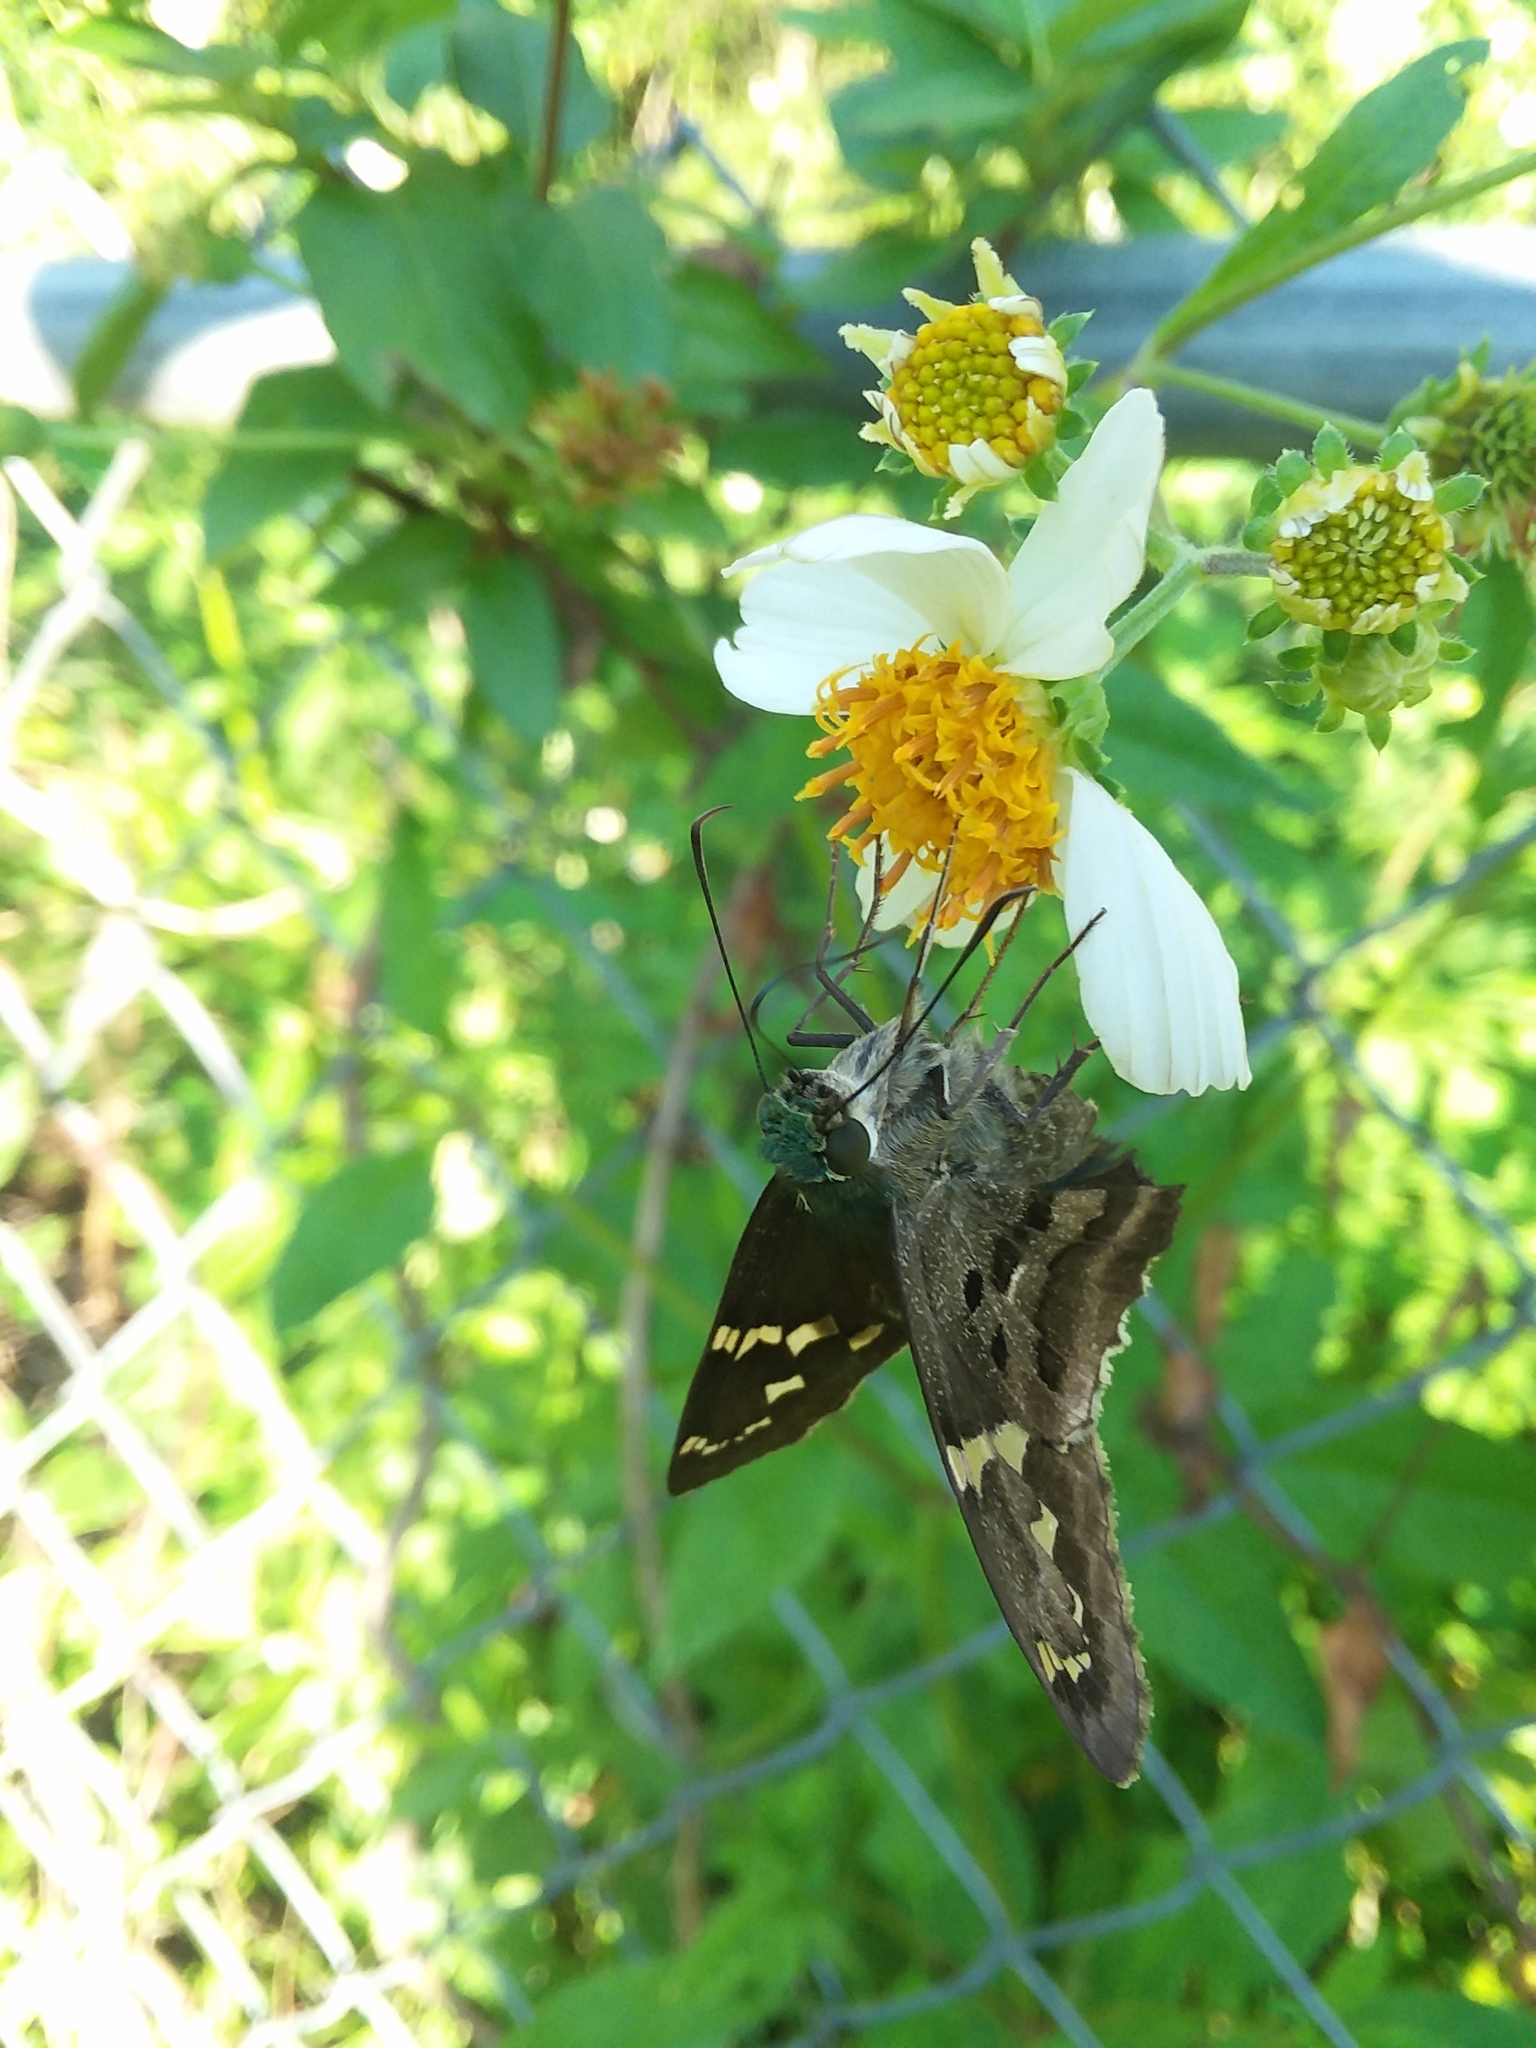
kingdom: Animalia
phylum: Arthropoda
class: Insecta
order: Lepidoptera
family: Hesperiidae
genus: Urbanus
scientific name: Urbanus proteus
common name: Long-tailed skipper
